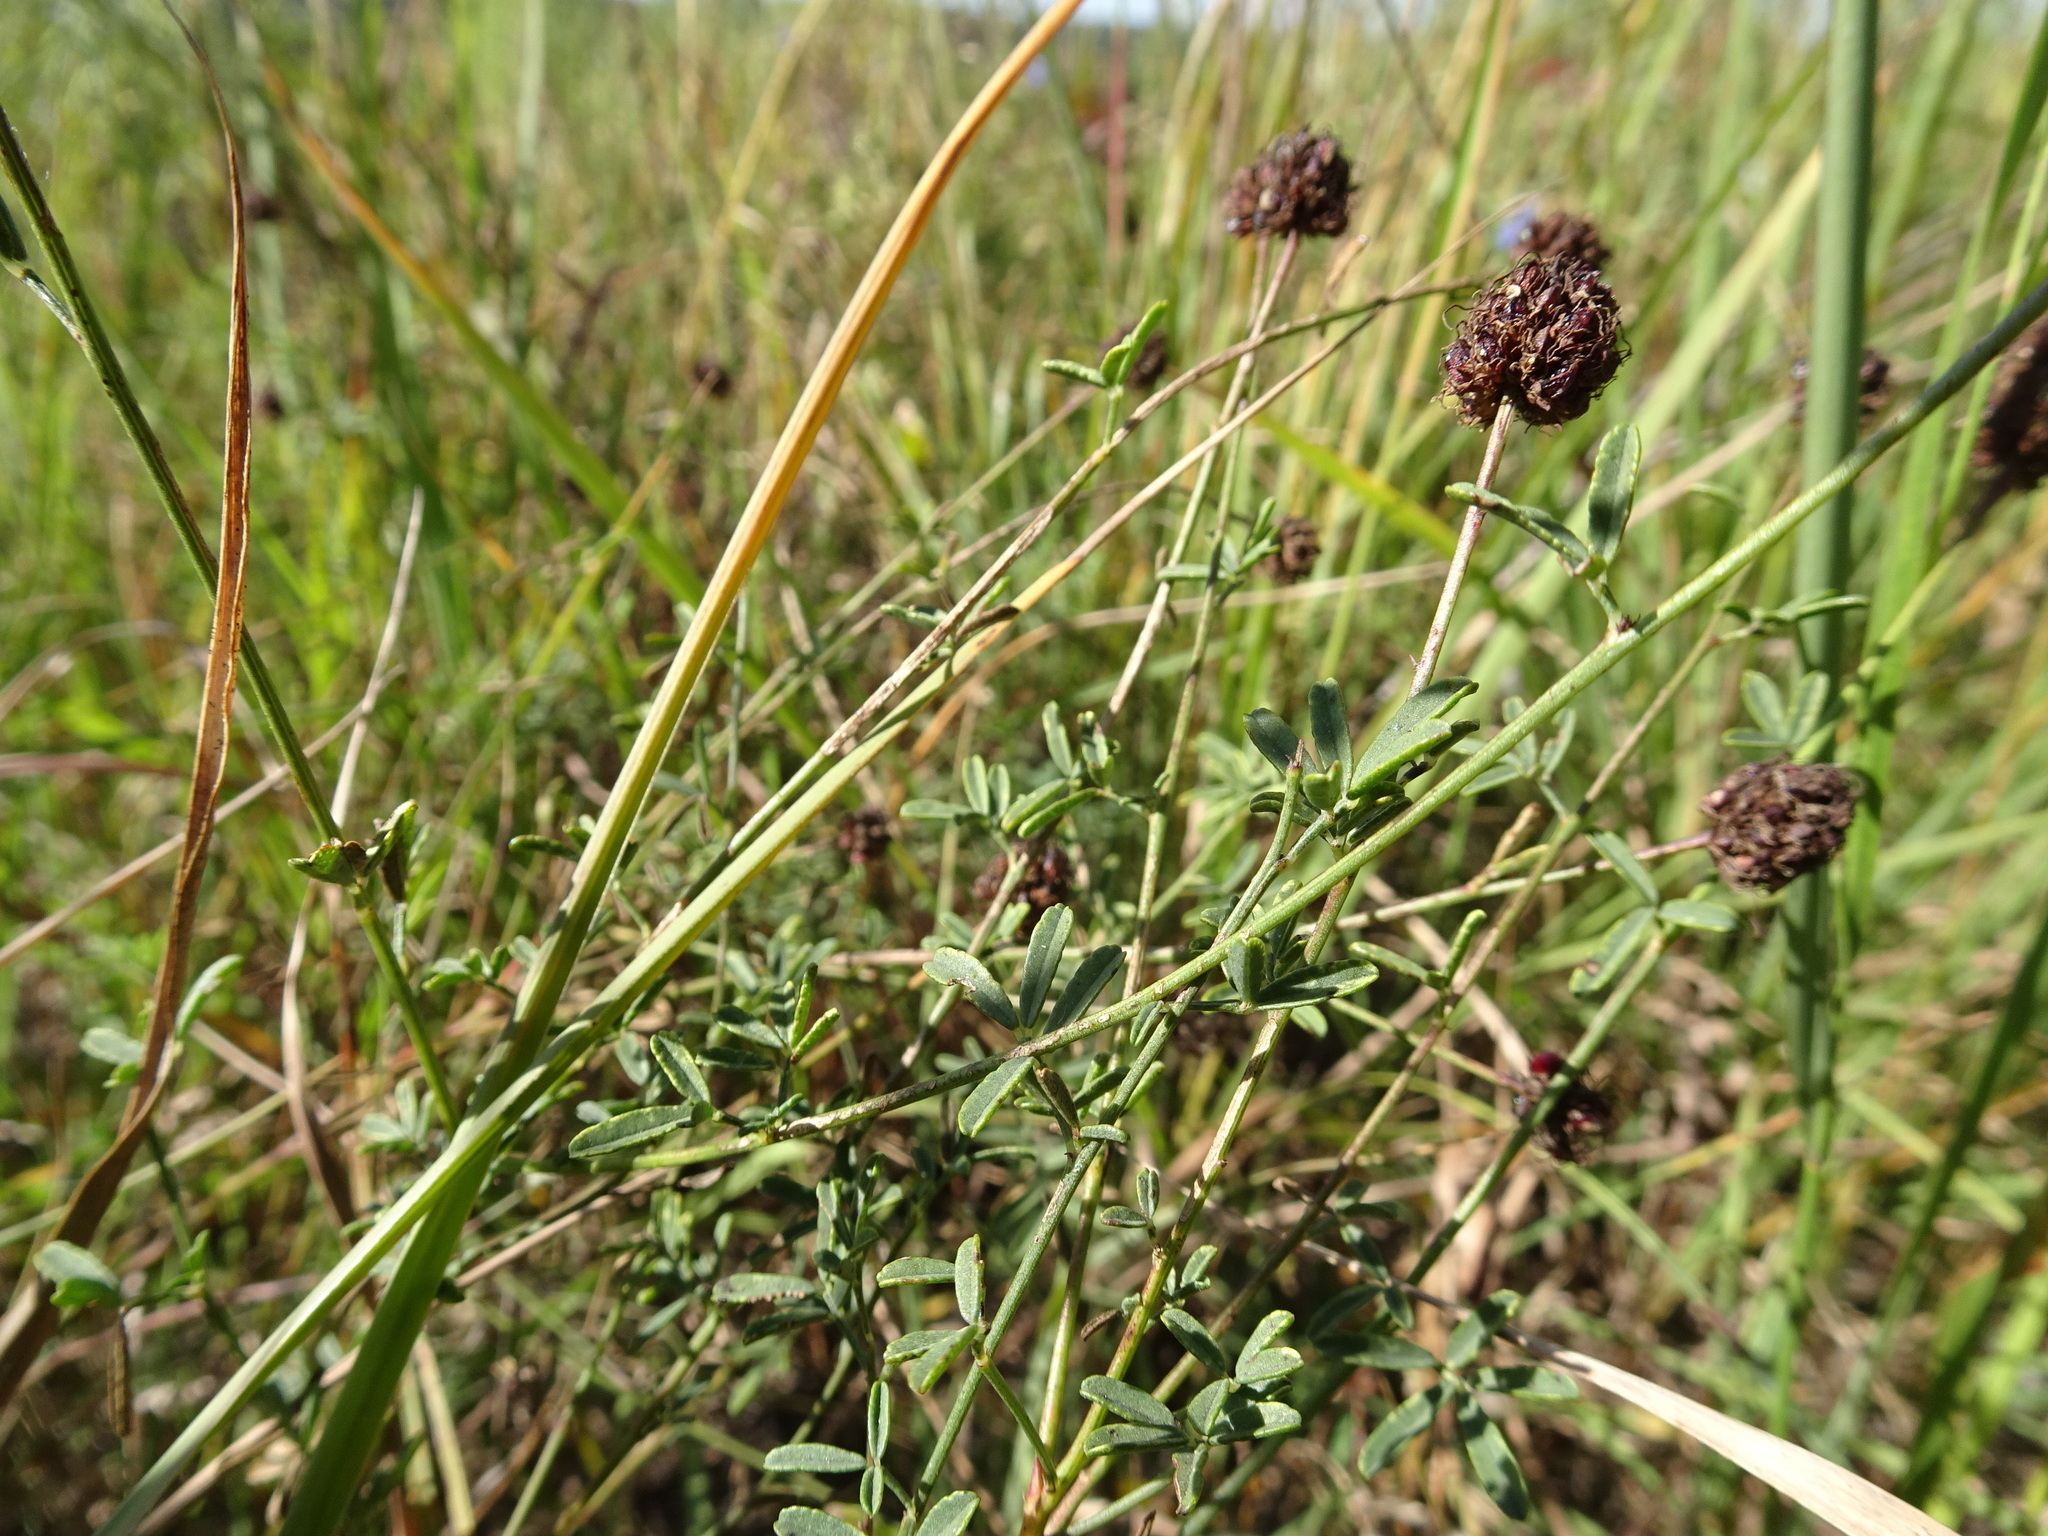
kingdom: Plantae
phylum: Tracheophyta
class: Magnoliopsida
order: Fabales
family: Fabaceae
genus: Dalea
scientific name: Dalea multiflora
